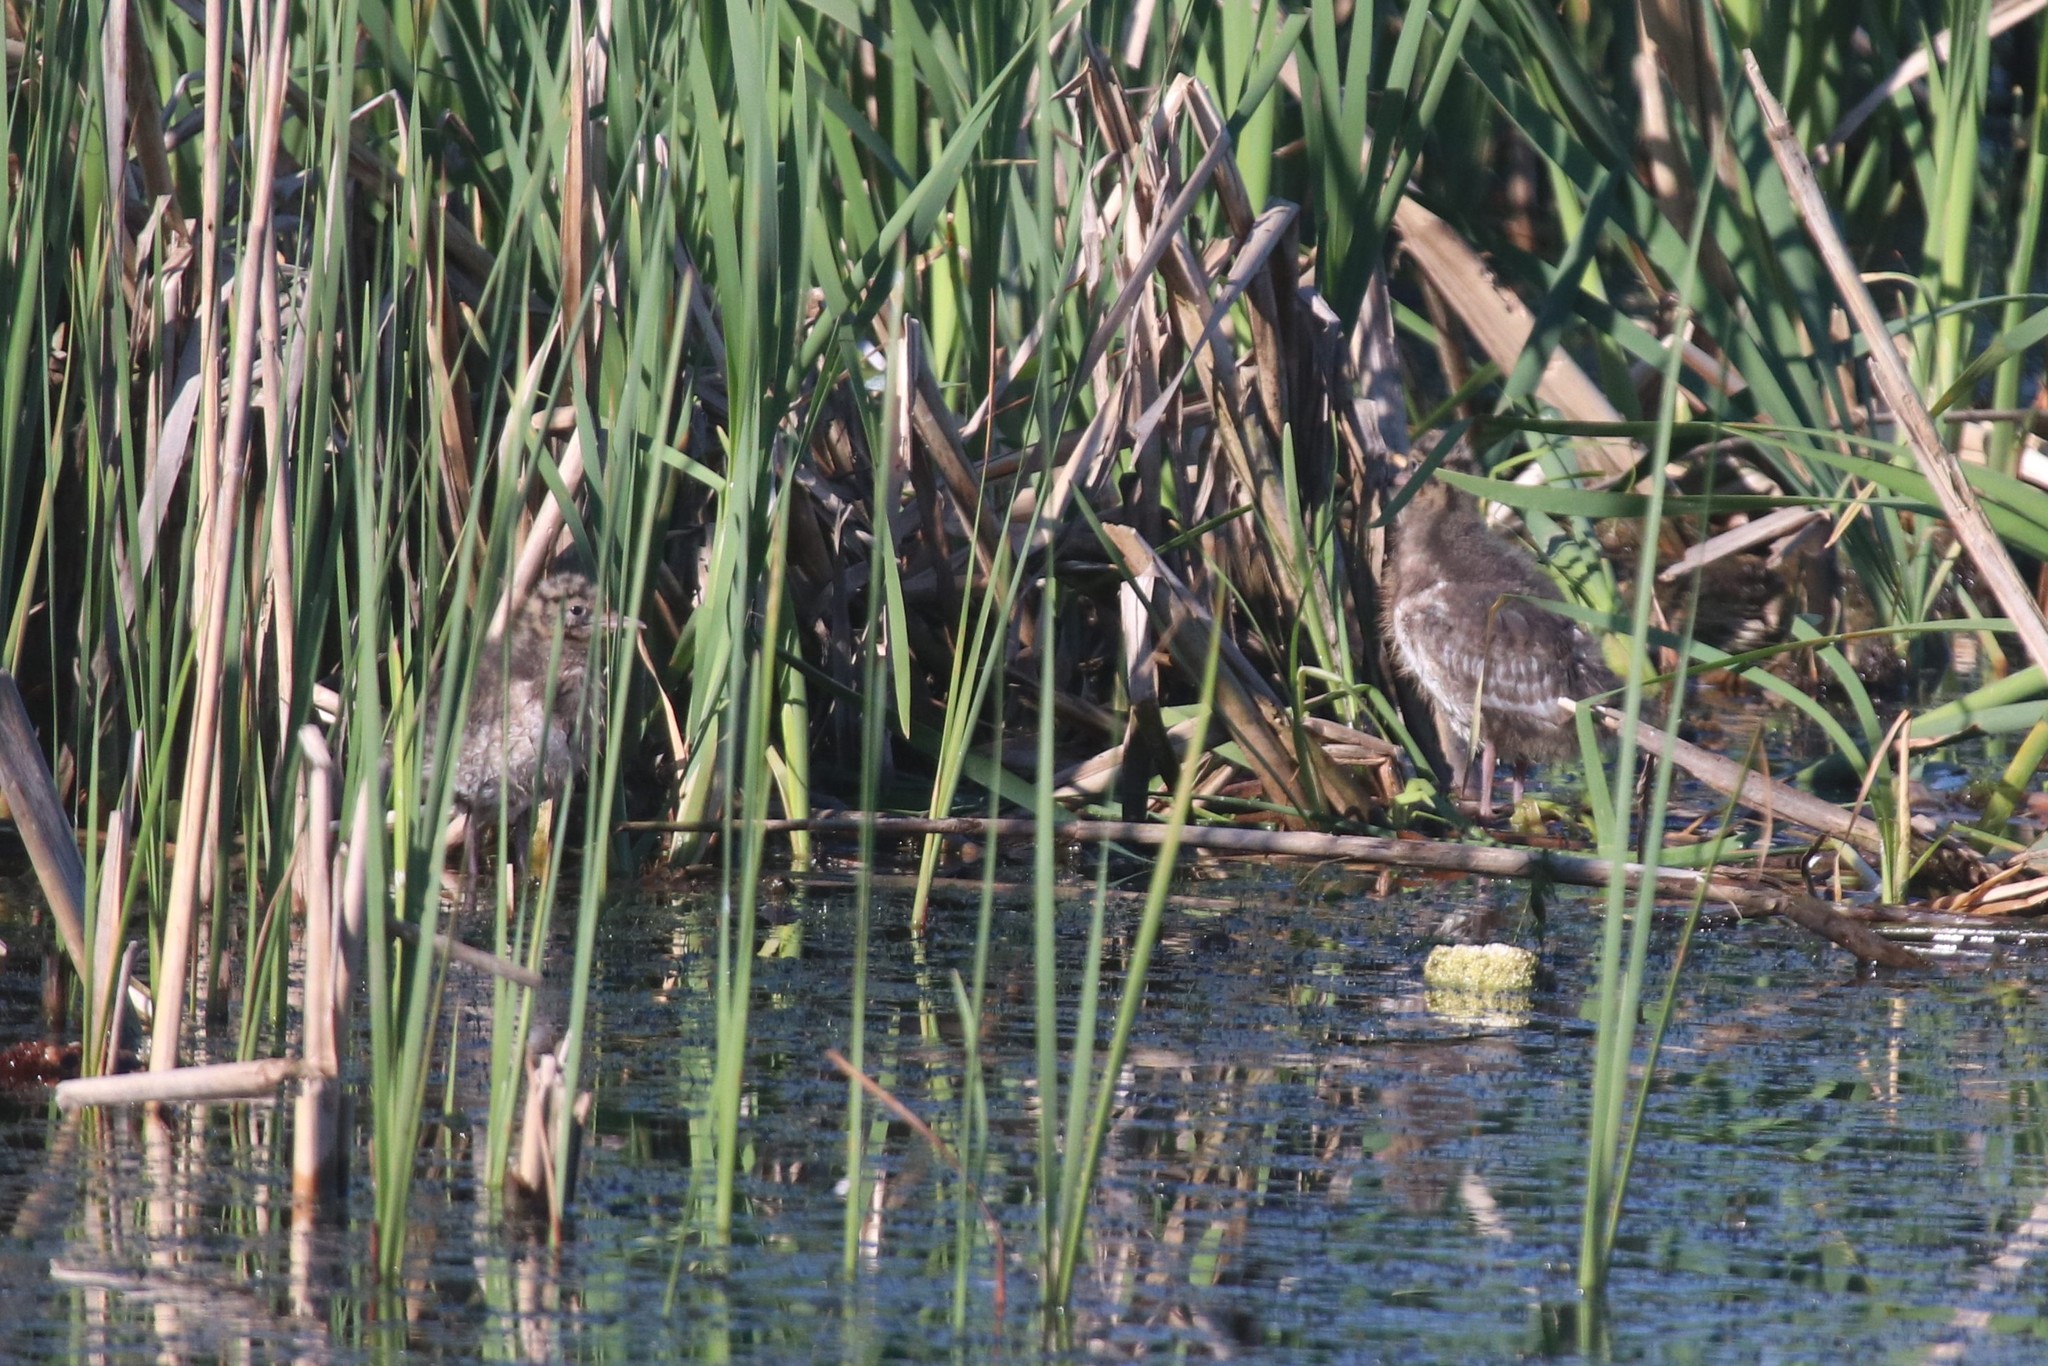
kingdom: Animalia
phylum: Chordata
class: Aves
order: Charadriiformes
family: Laridae
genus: Chroicocephalus
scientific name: Chroicocephalus ridibundus
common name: Black-headed gull
